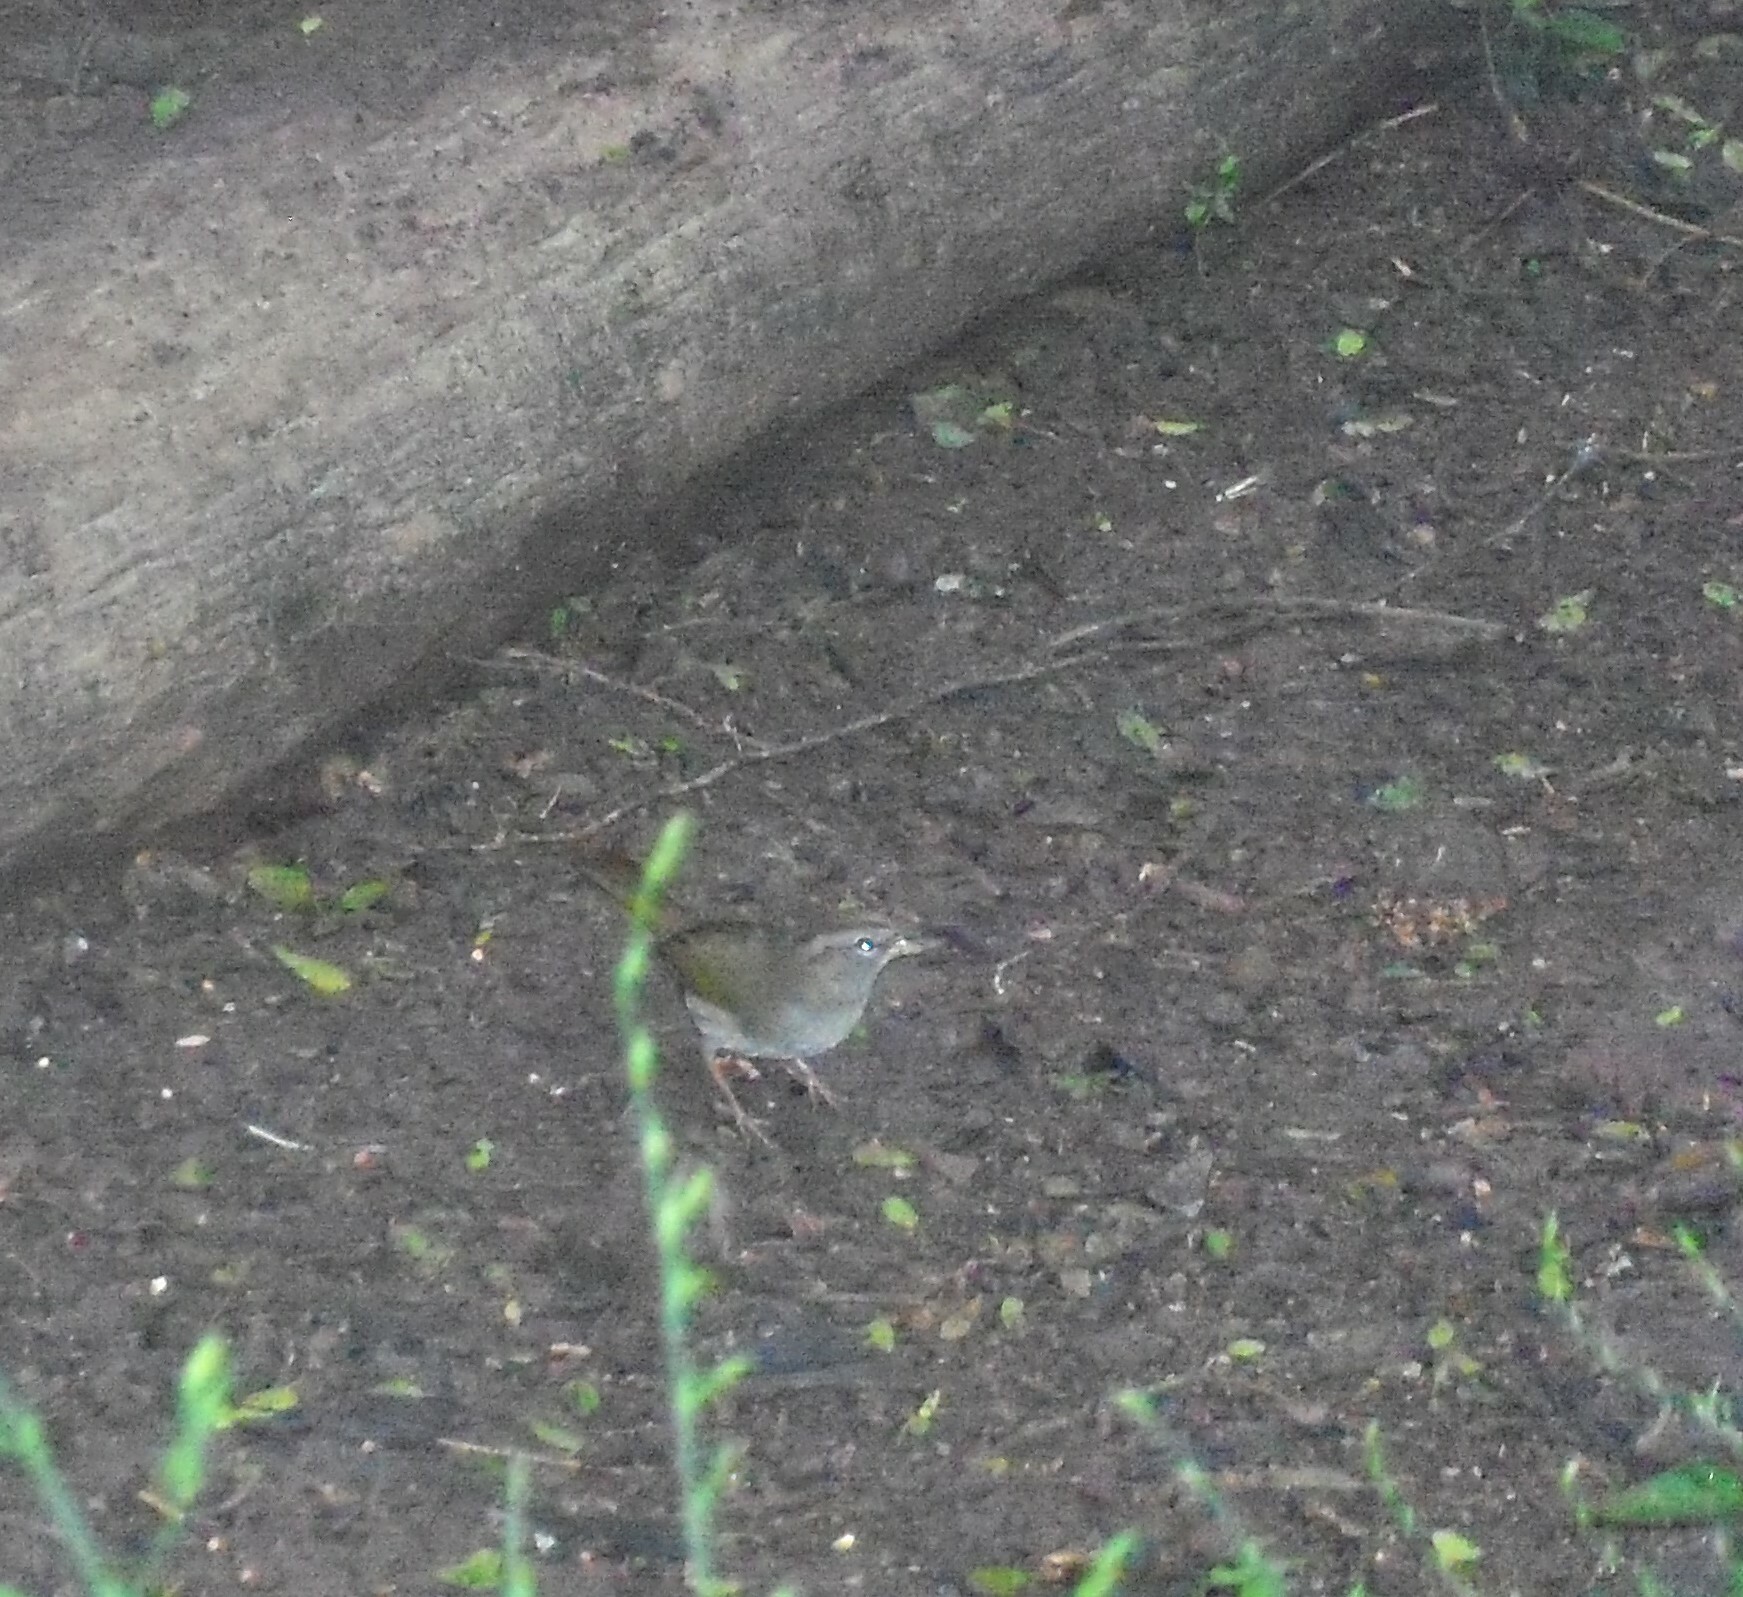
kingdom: Animalia
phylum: Chordata
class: Aves
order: Passeriformes
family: Passerellidae
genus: Arremonops
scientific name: Arremonops rufivirgatus
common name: Olive sparrow
